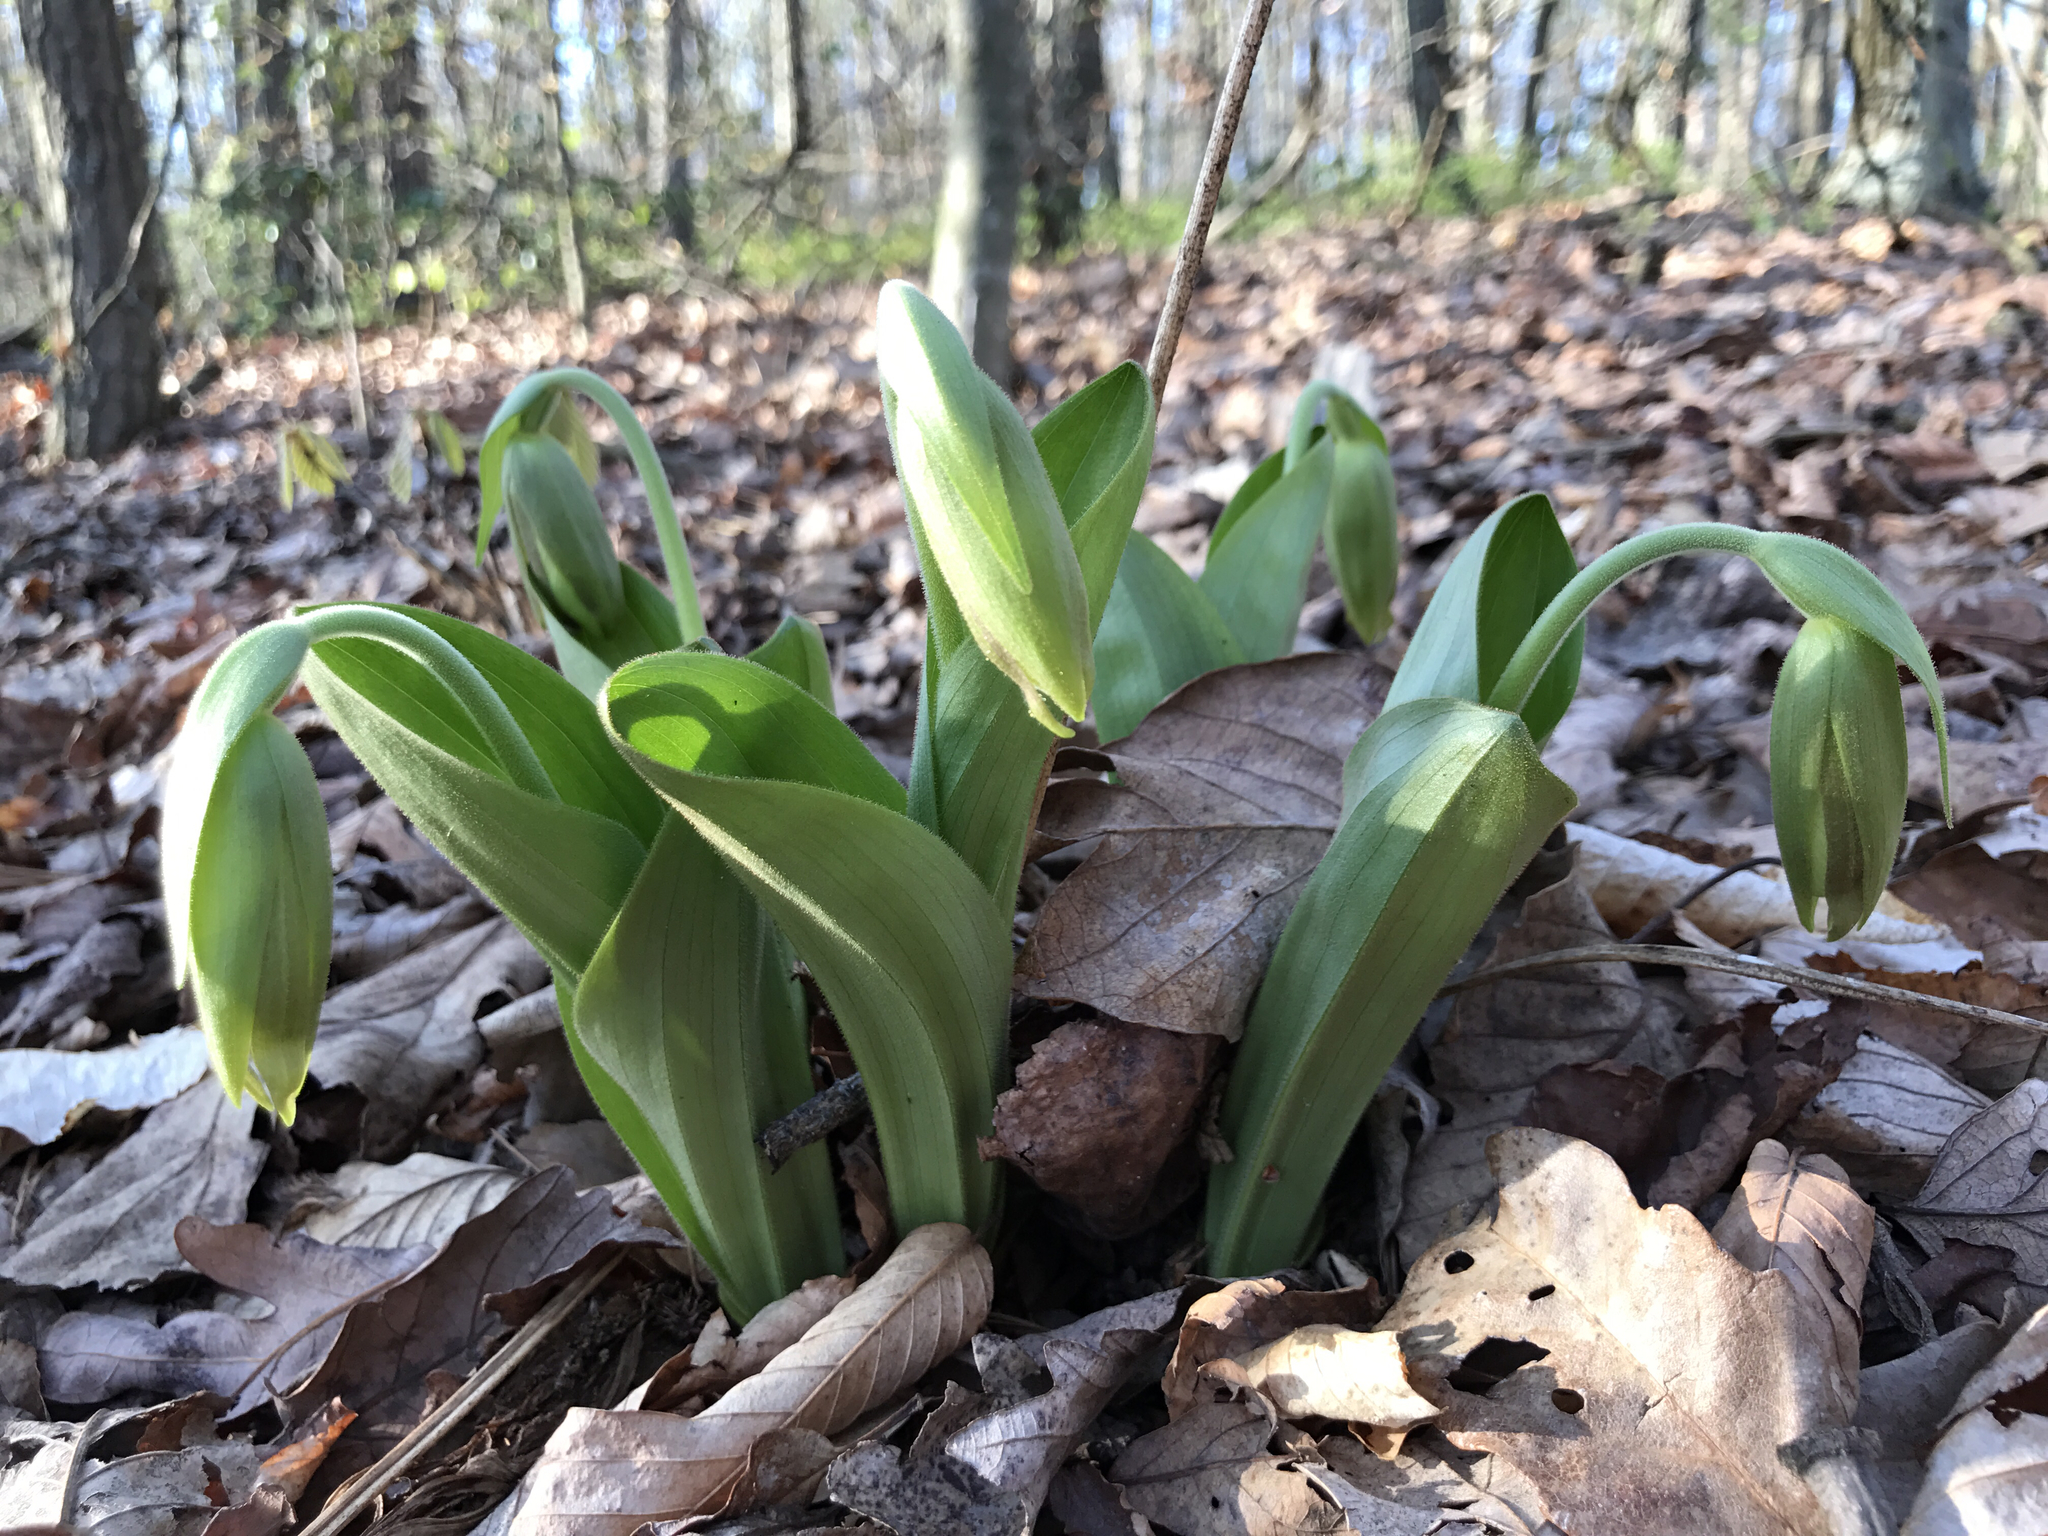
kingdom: Plantae
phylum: Tracheophyta
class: Liliopsida
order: Asparagales
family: Orchidaceae
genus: Cypripedium
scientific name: Cypripedium acaule
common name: Pink lady's-slipper
